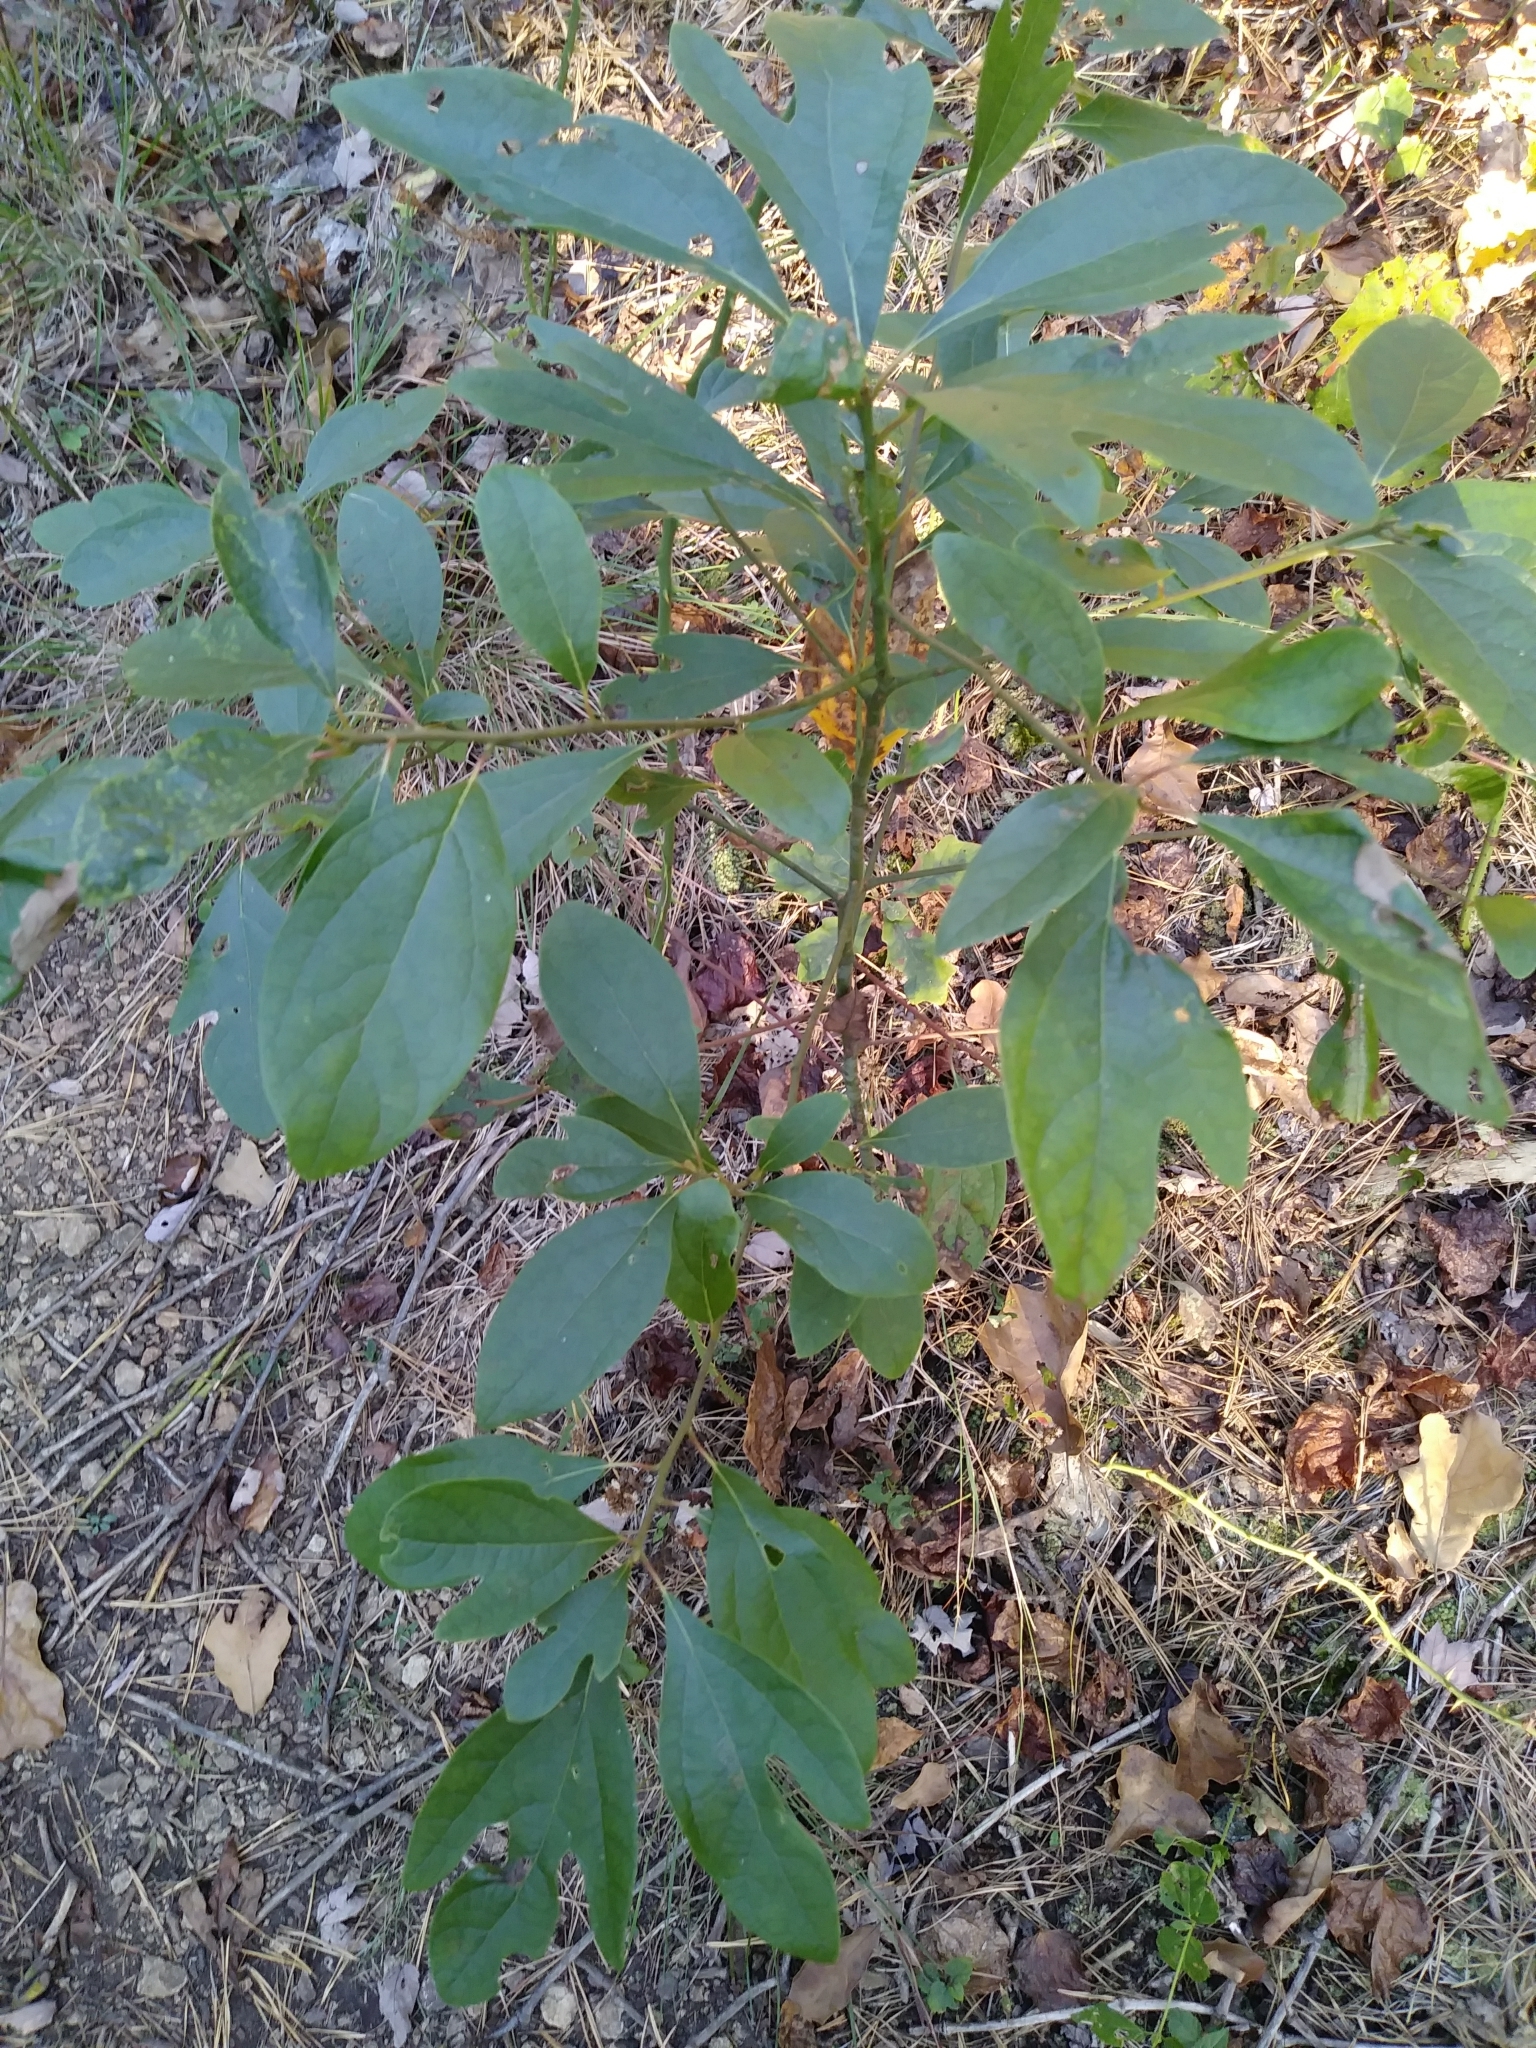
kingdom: Plantae
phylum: Tracheophyta
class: Magnoliopsida
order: Laurales
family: Lauraceae
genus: Sassafras
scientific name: Sassafras albidum
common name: Sassafras
